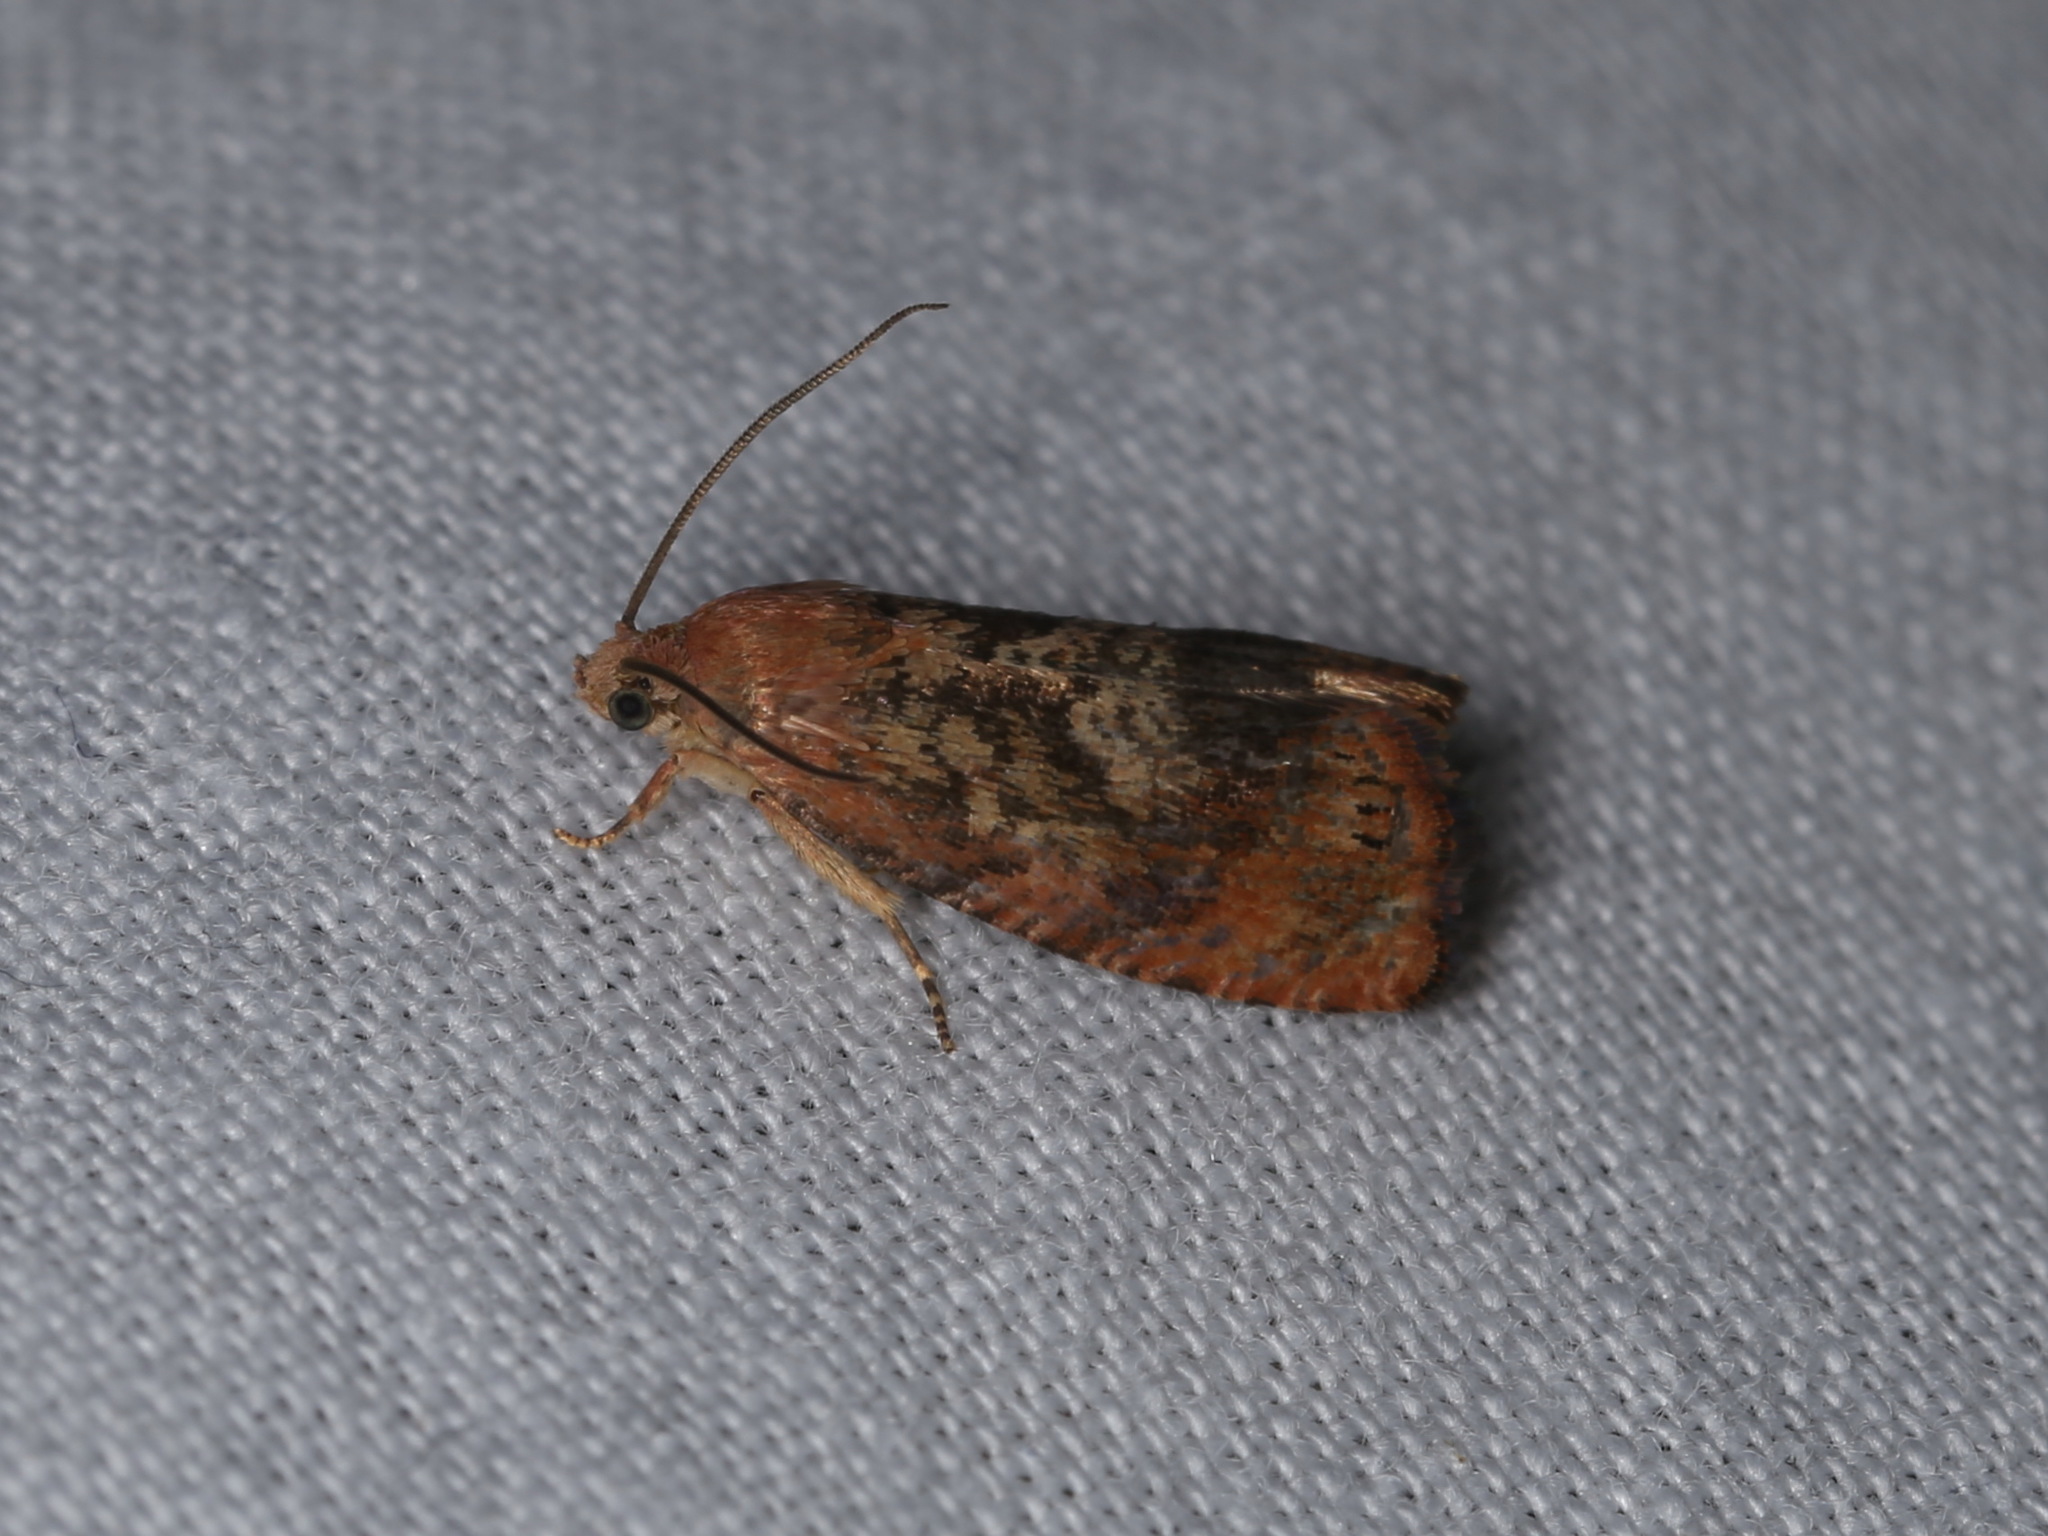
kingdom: Animalia
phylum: Arthropoda
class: Insecta
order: Lepidoptera
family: Tortricidae
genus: Cydia
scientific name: Cydia amplana
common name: Vagrant piercer
